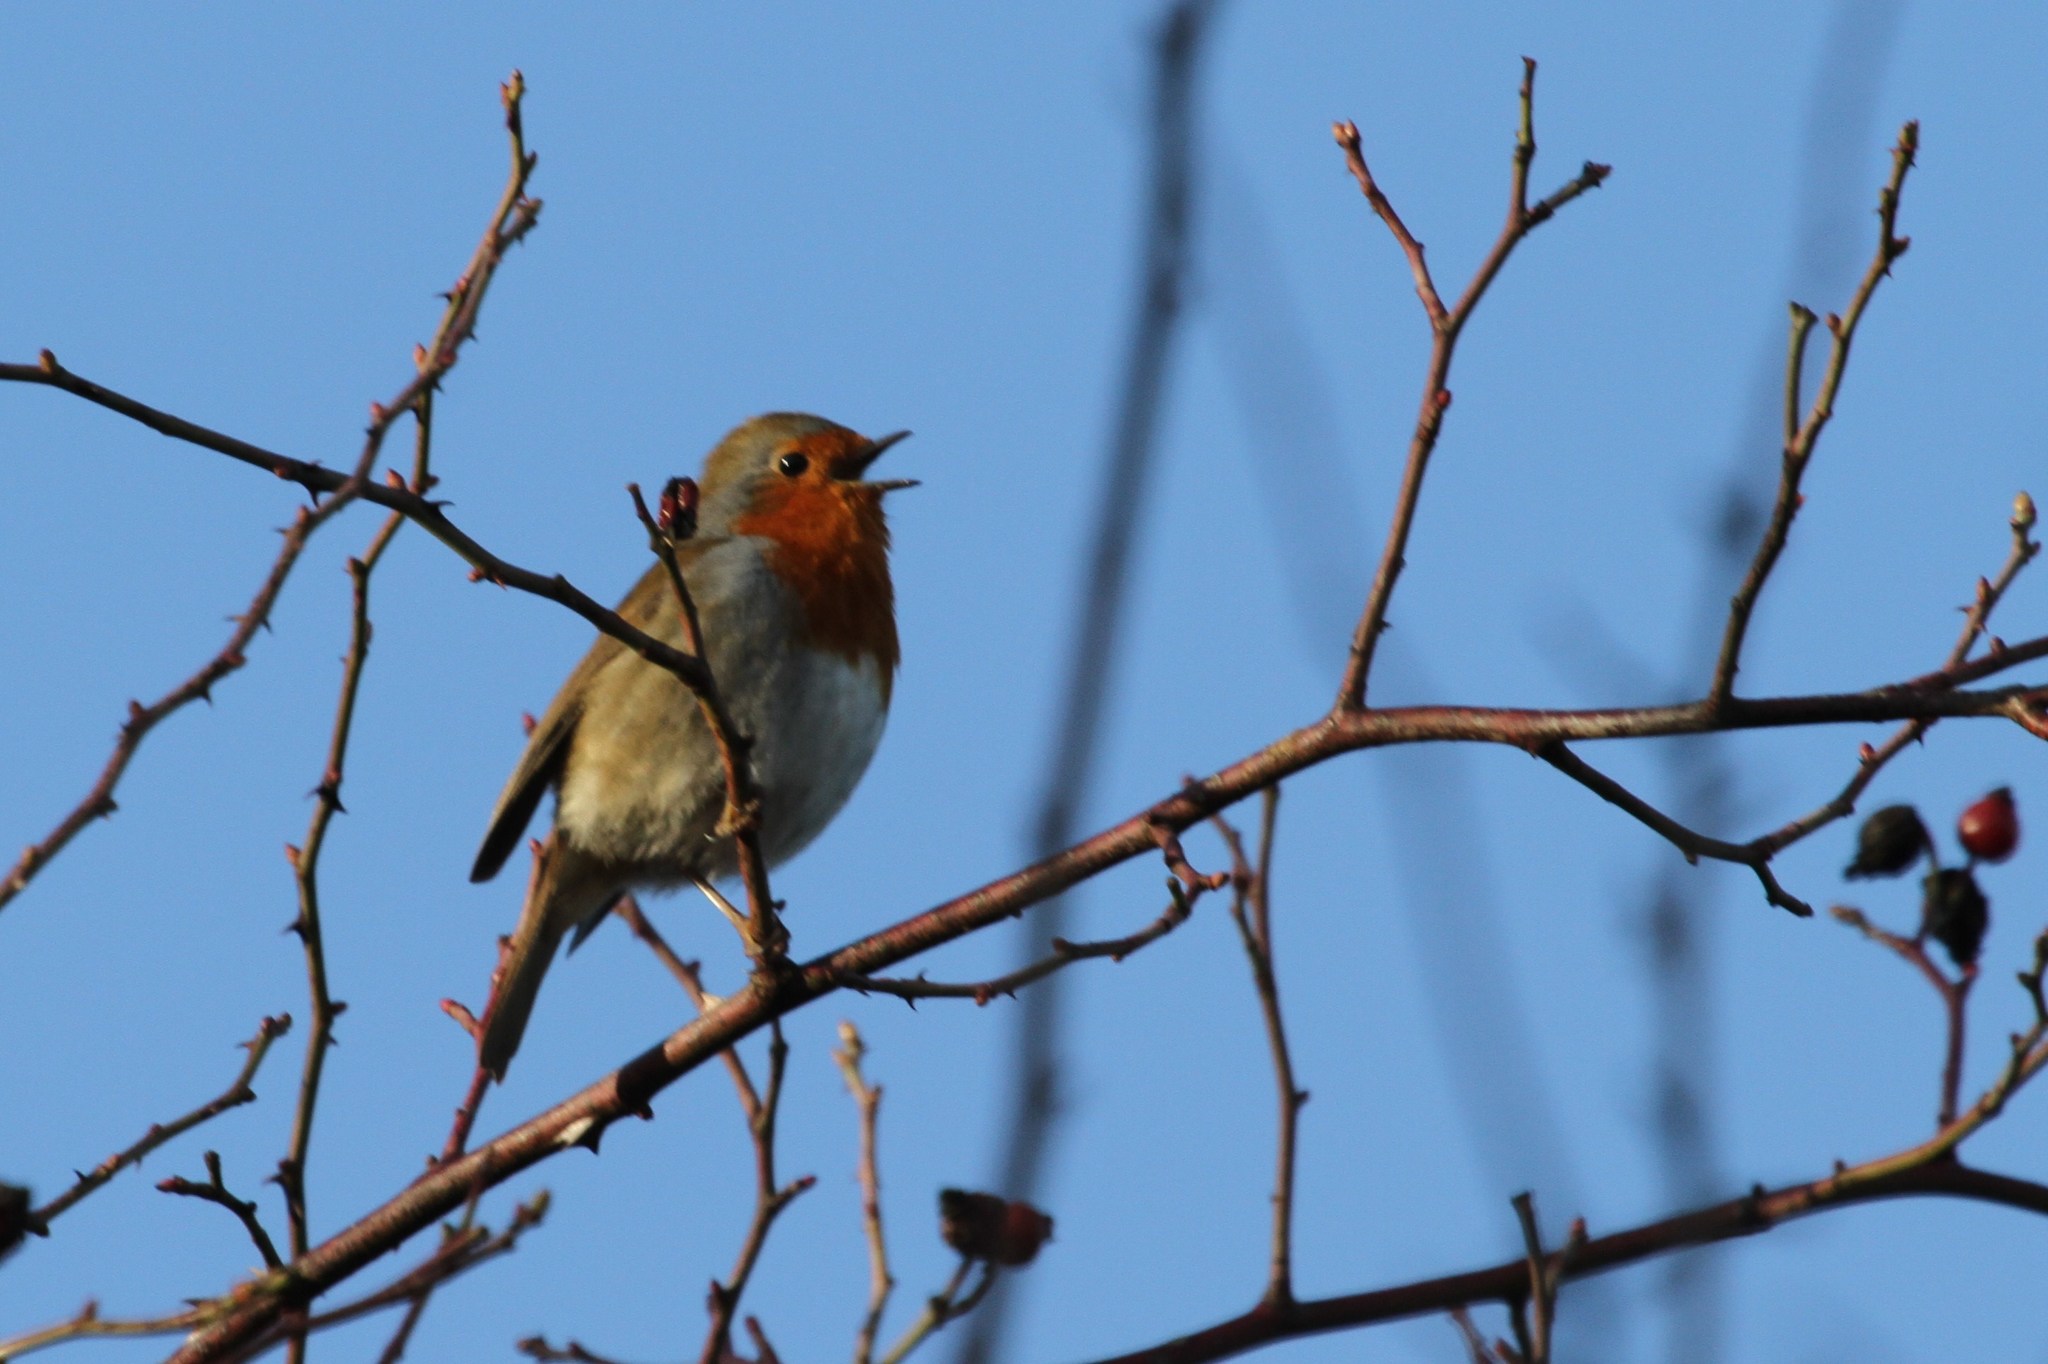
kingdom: Animalia
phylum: Chordata
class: Aves
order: Passeriformes
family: Muscicapidae
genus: Erithacus
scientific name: Erithacus rubecula
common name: European robin
